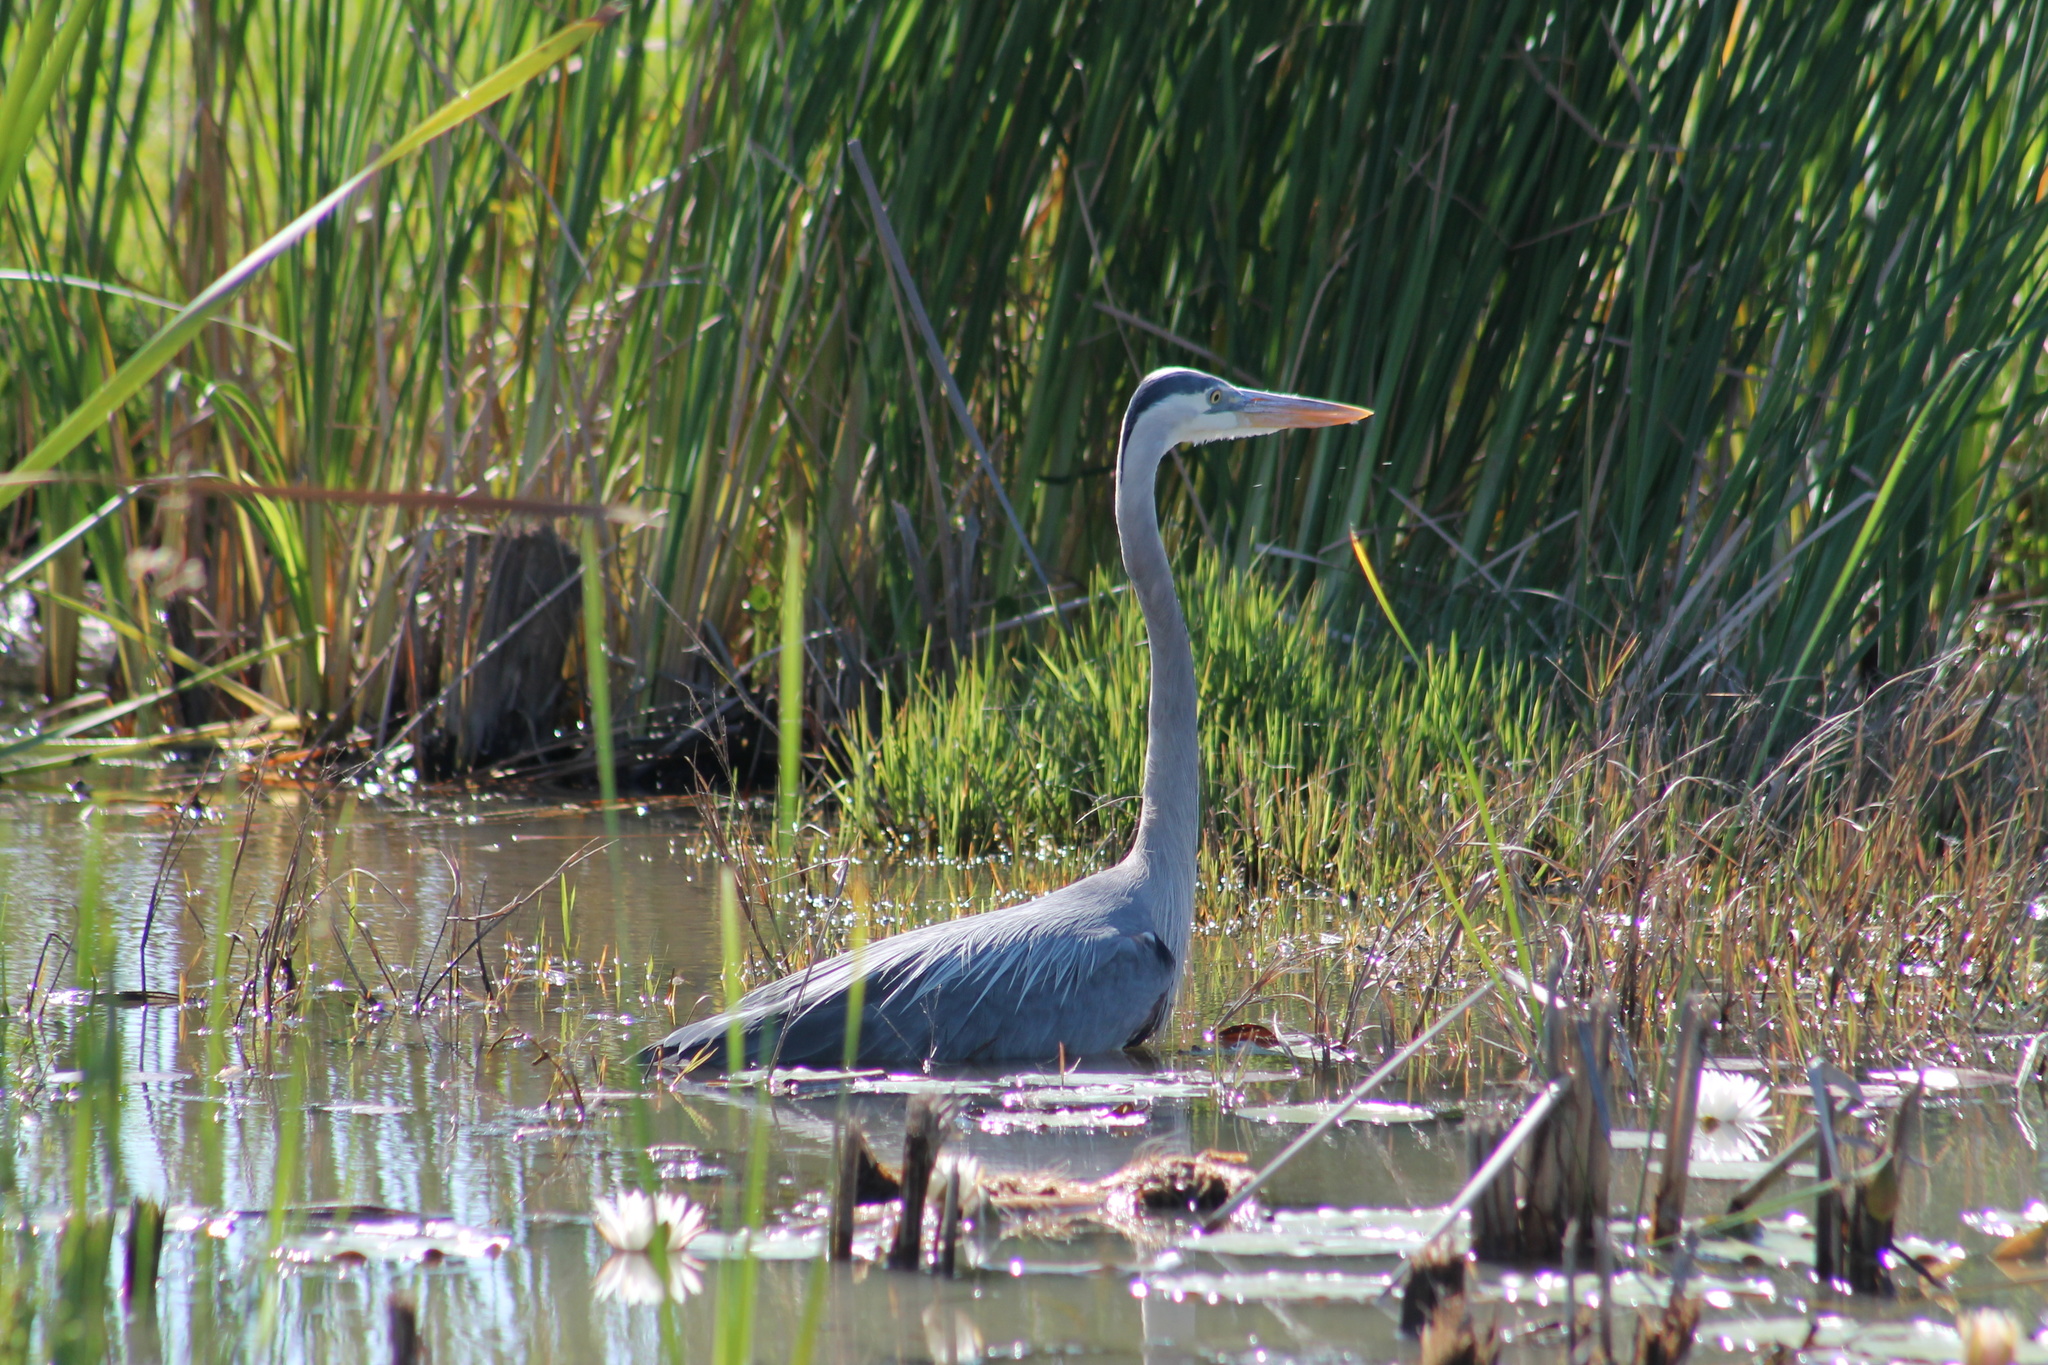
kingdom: Animalia
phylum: Chordata
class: Aves
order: Pelecaniformes
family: Ardeidae
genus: Ardea
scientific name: Ardea herodias
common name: Great blue heron
